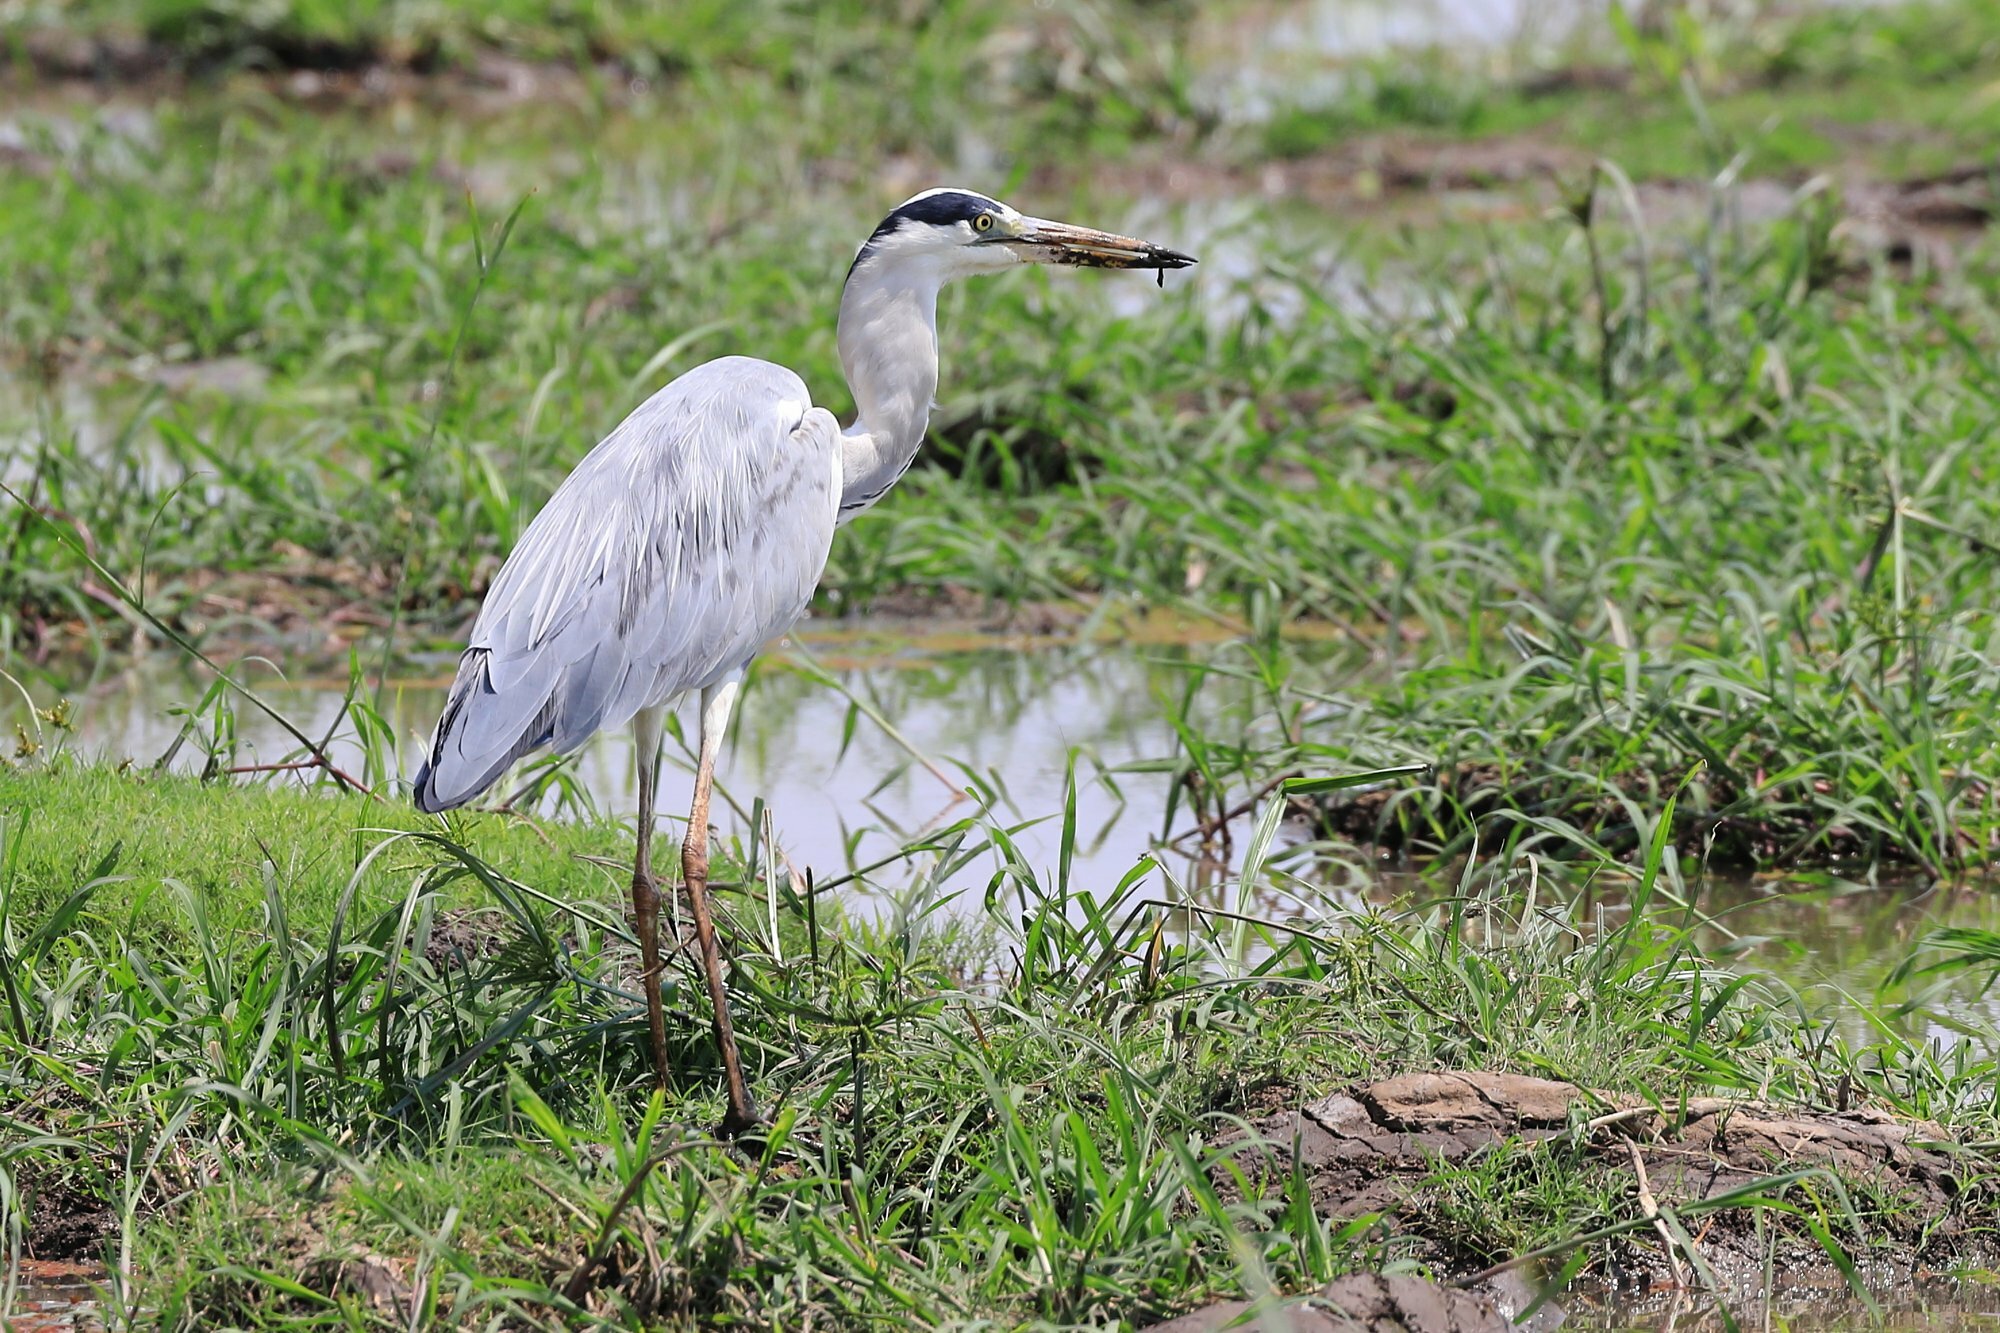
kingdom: Animalia
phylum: Chordata
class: Aves
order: Pelecaniformes
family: Ardeidae
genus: Ardea
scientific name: Ardea cinerea
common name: Grey heron
